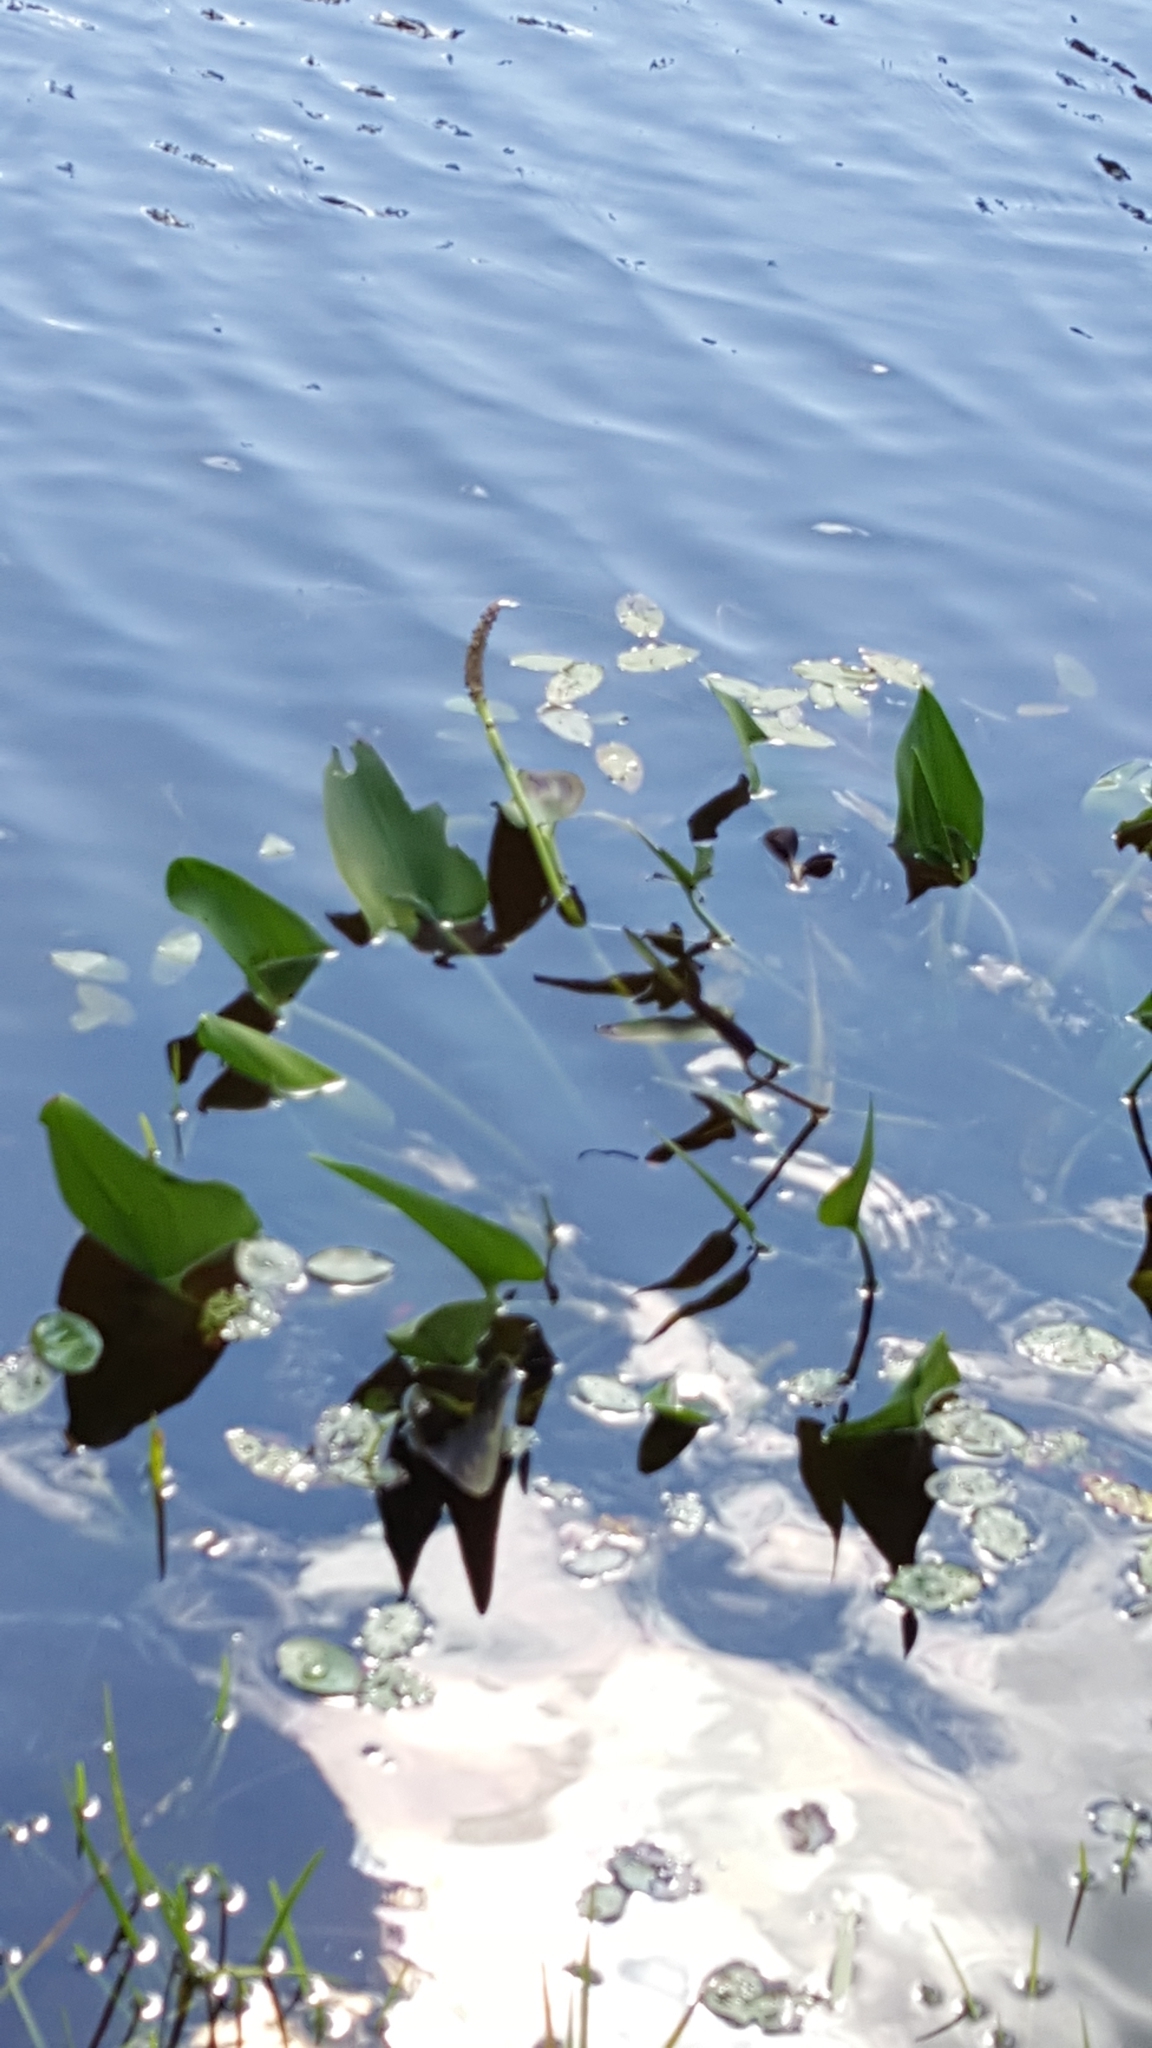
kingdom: Plantae
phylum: Tracheophyta
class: Liliopsida
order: Commelinales
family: Pontederiaceae
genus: Pontederia
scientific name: Pontederia cordata
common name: Pickerelweed
